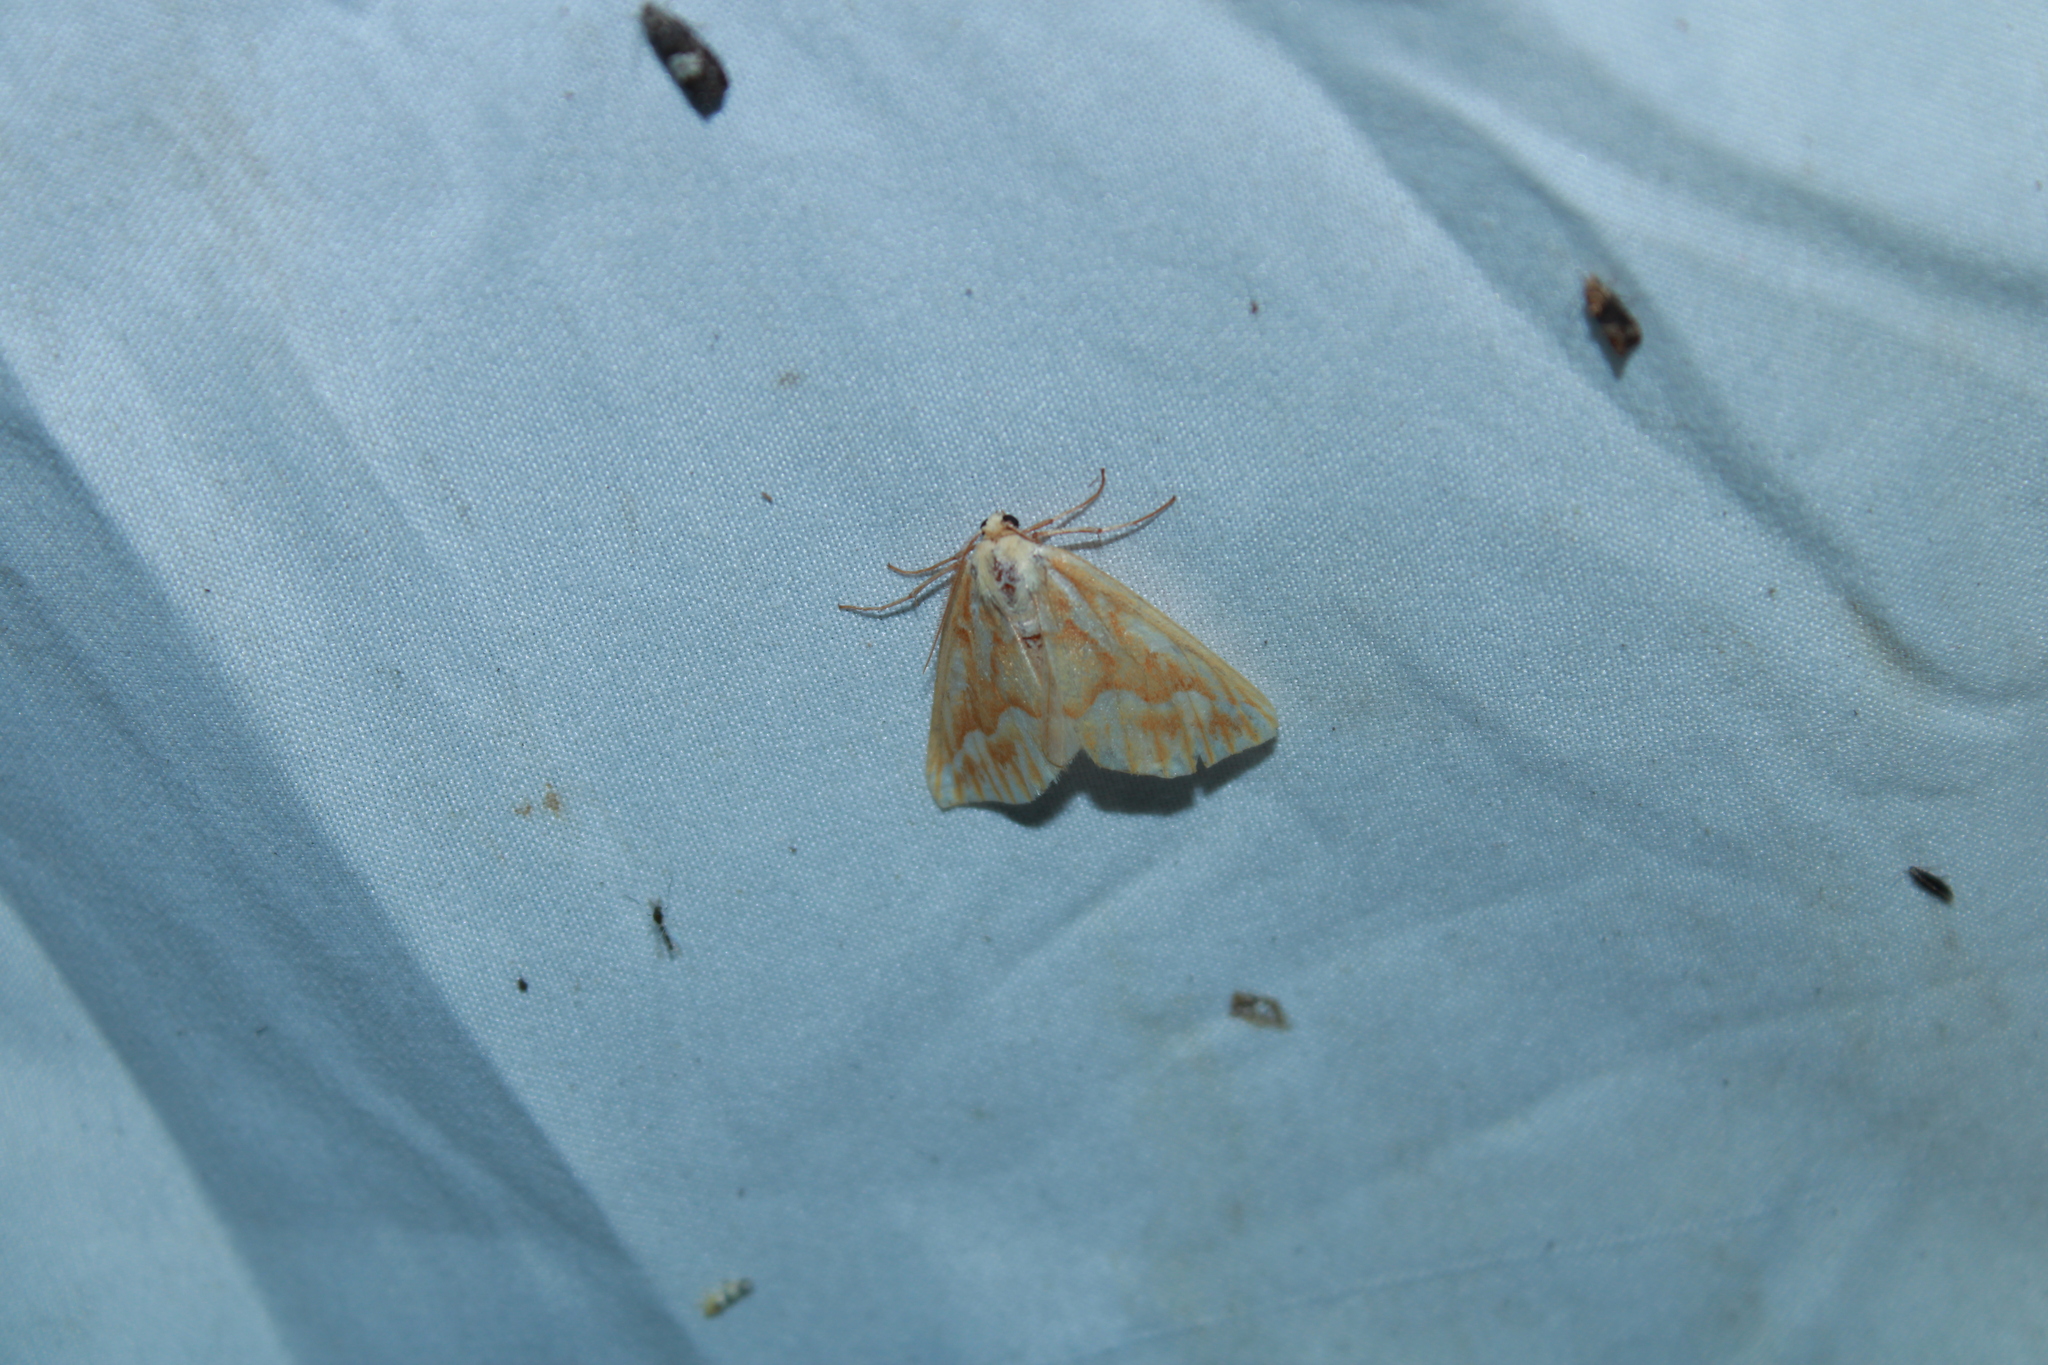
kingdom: Animalia
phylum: Arthropoda
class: Insecta
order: Lepidoptera
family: Geometridae
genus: Caripeta
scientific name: Caripeta piniata
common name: Northern pine looper moth
